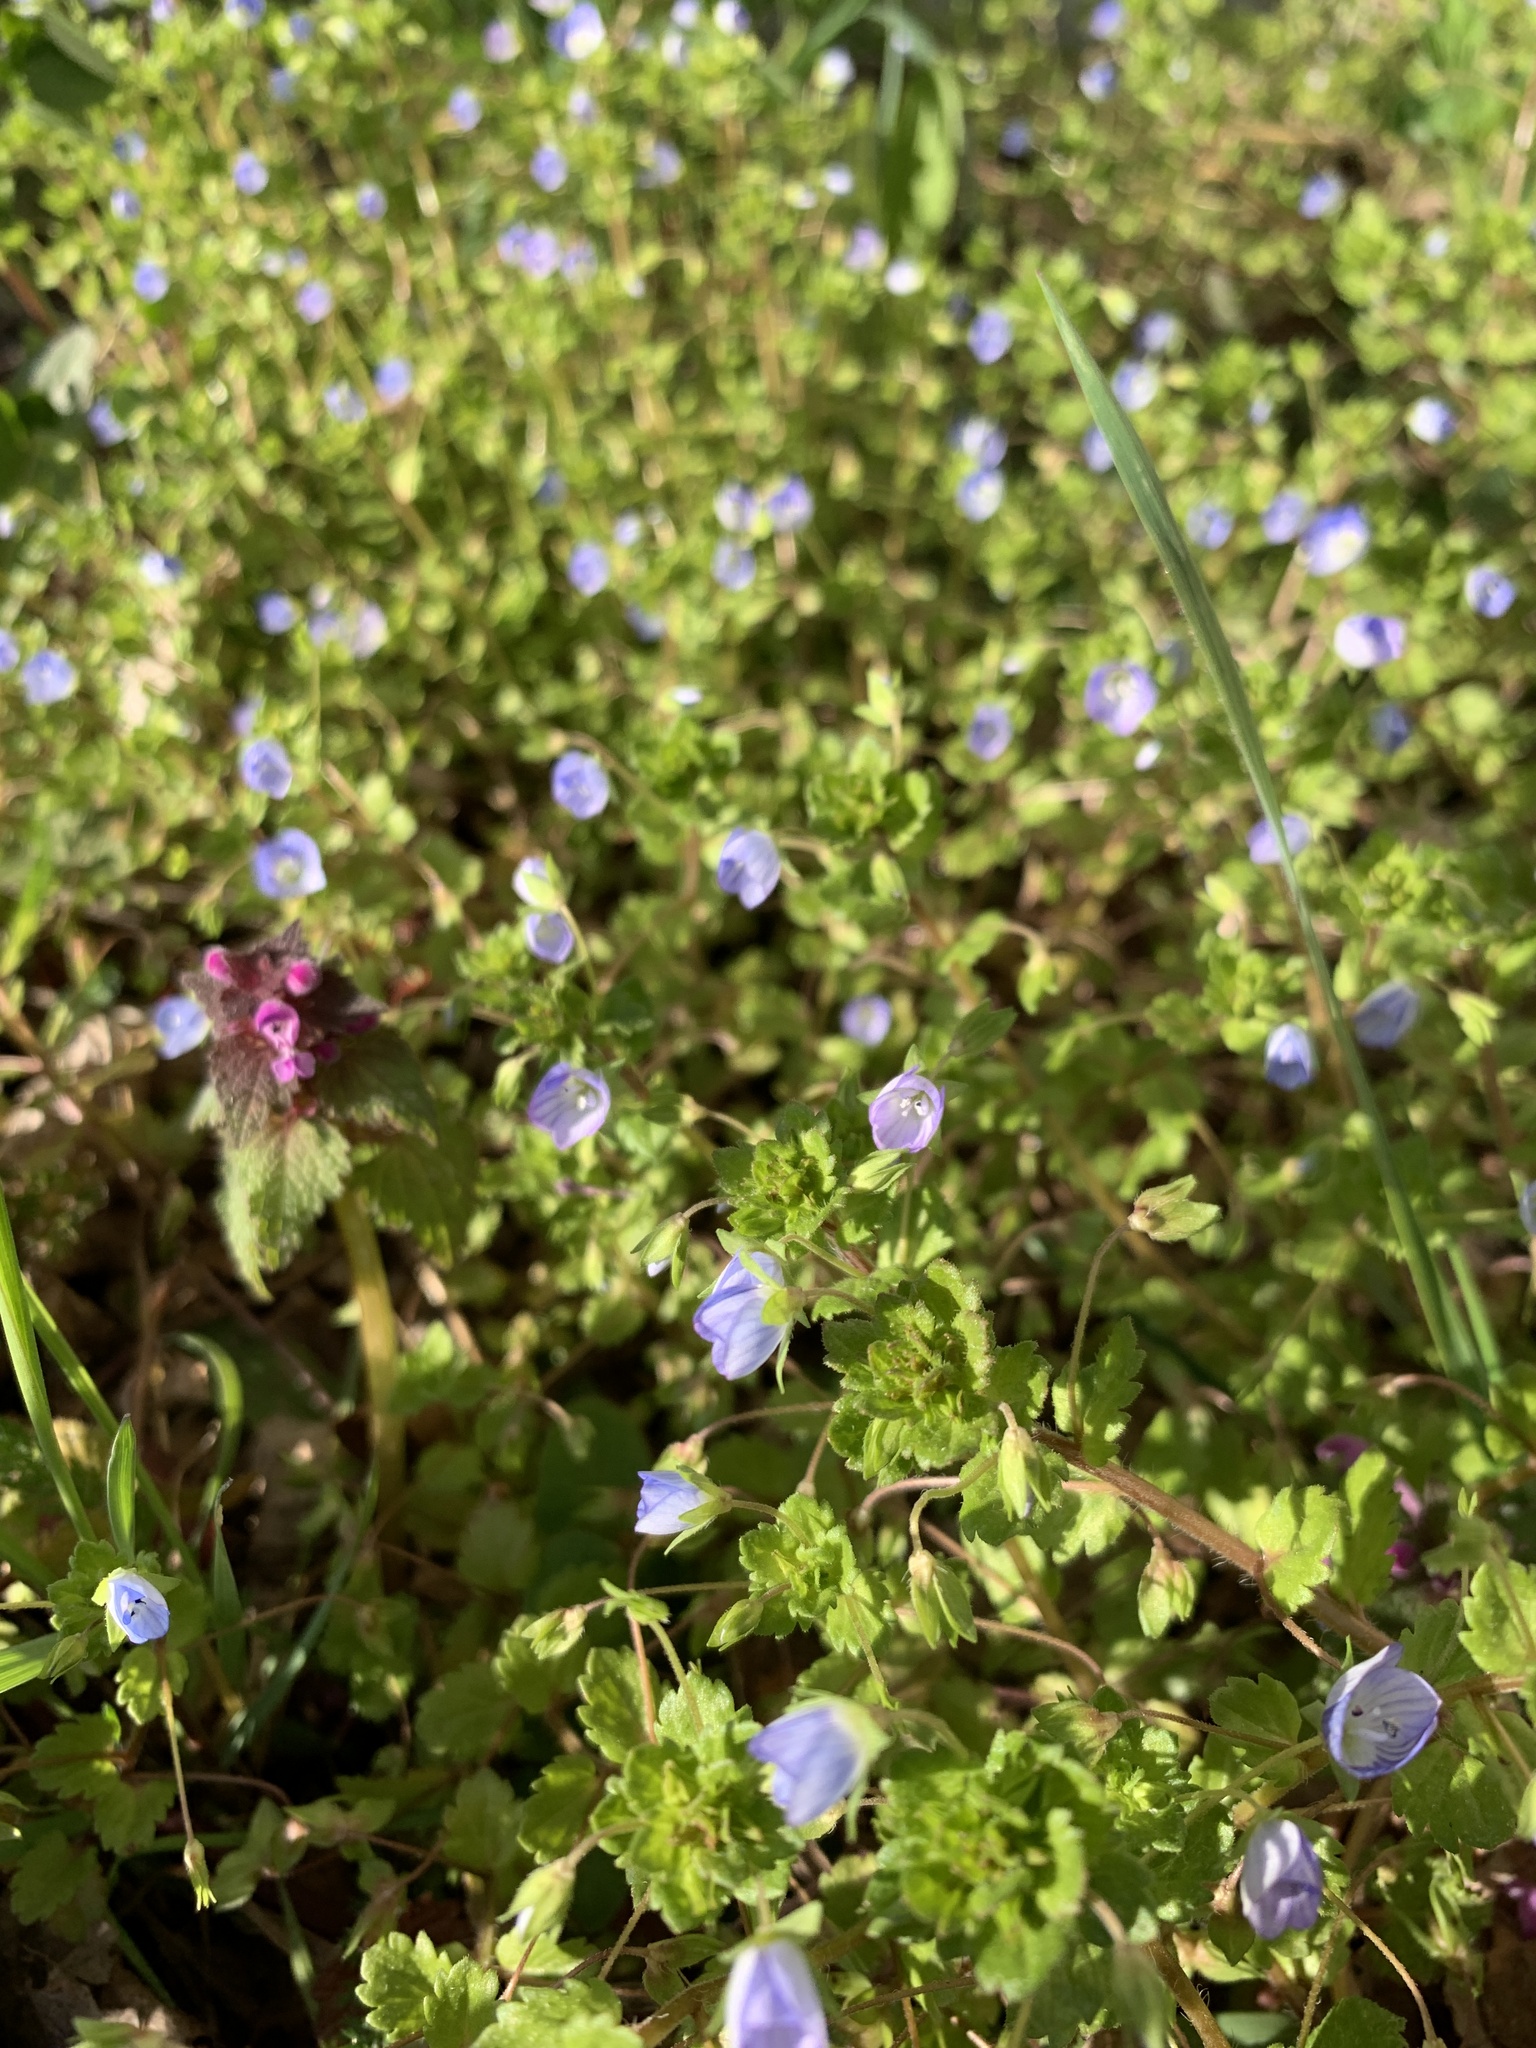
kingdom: Plantae
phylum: Tracheophyta
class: Magnoliopsida
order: Lamiales
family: Plantaginaceae
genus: Veronica
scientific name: Veronica persica
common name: Common field-speedwell
